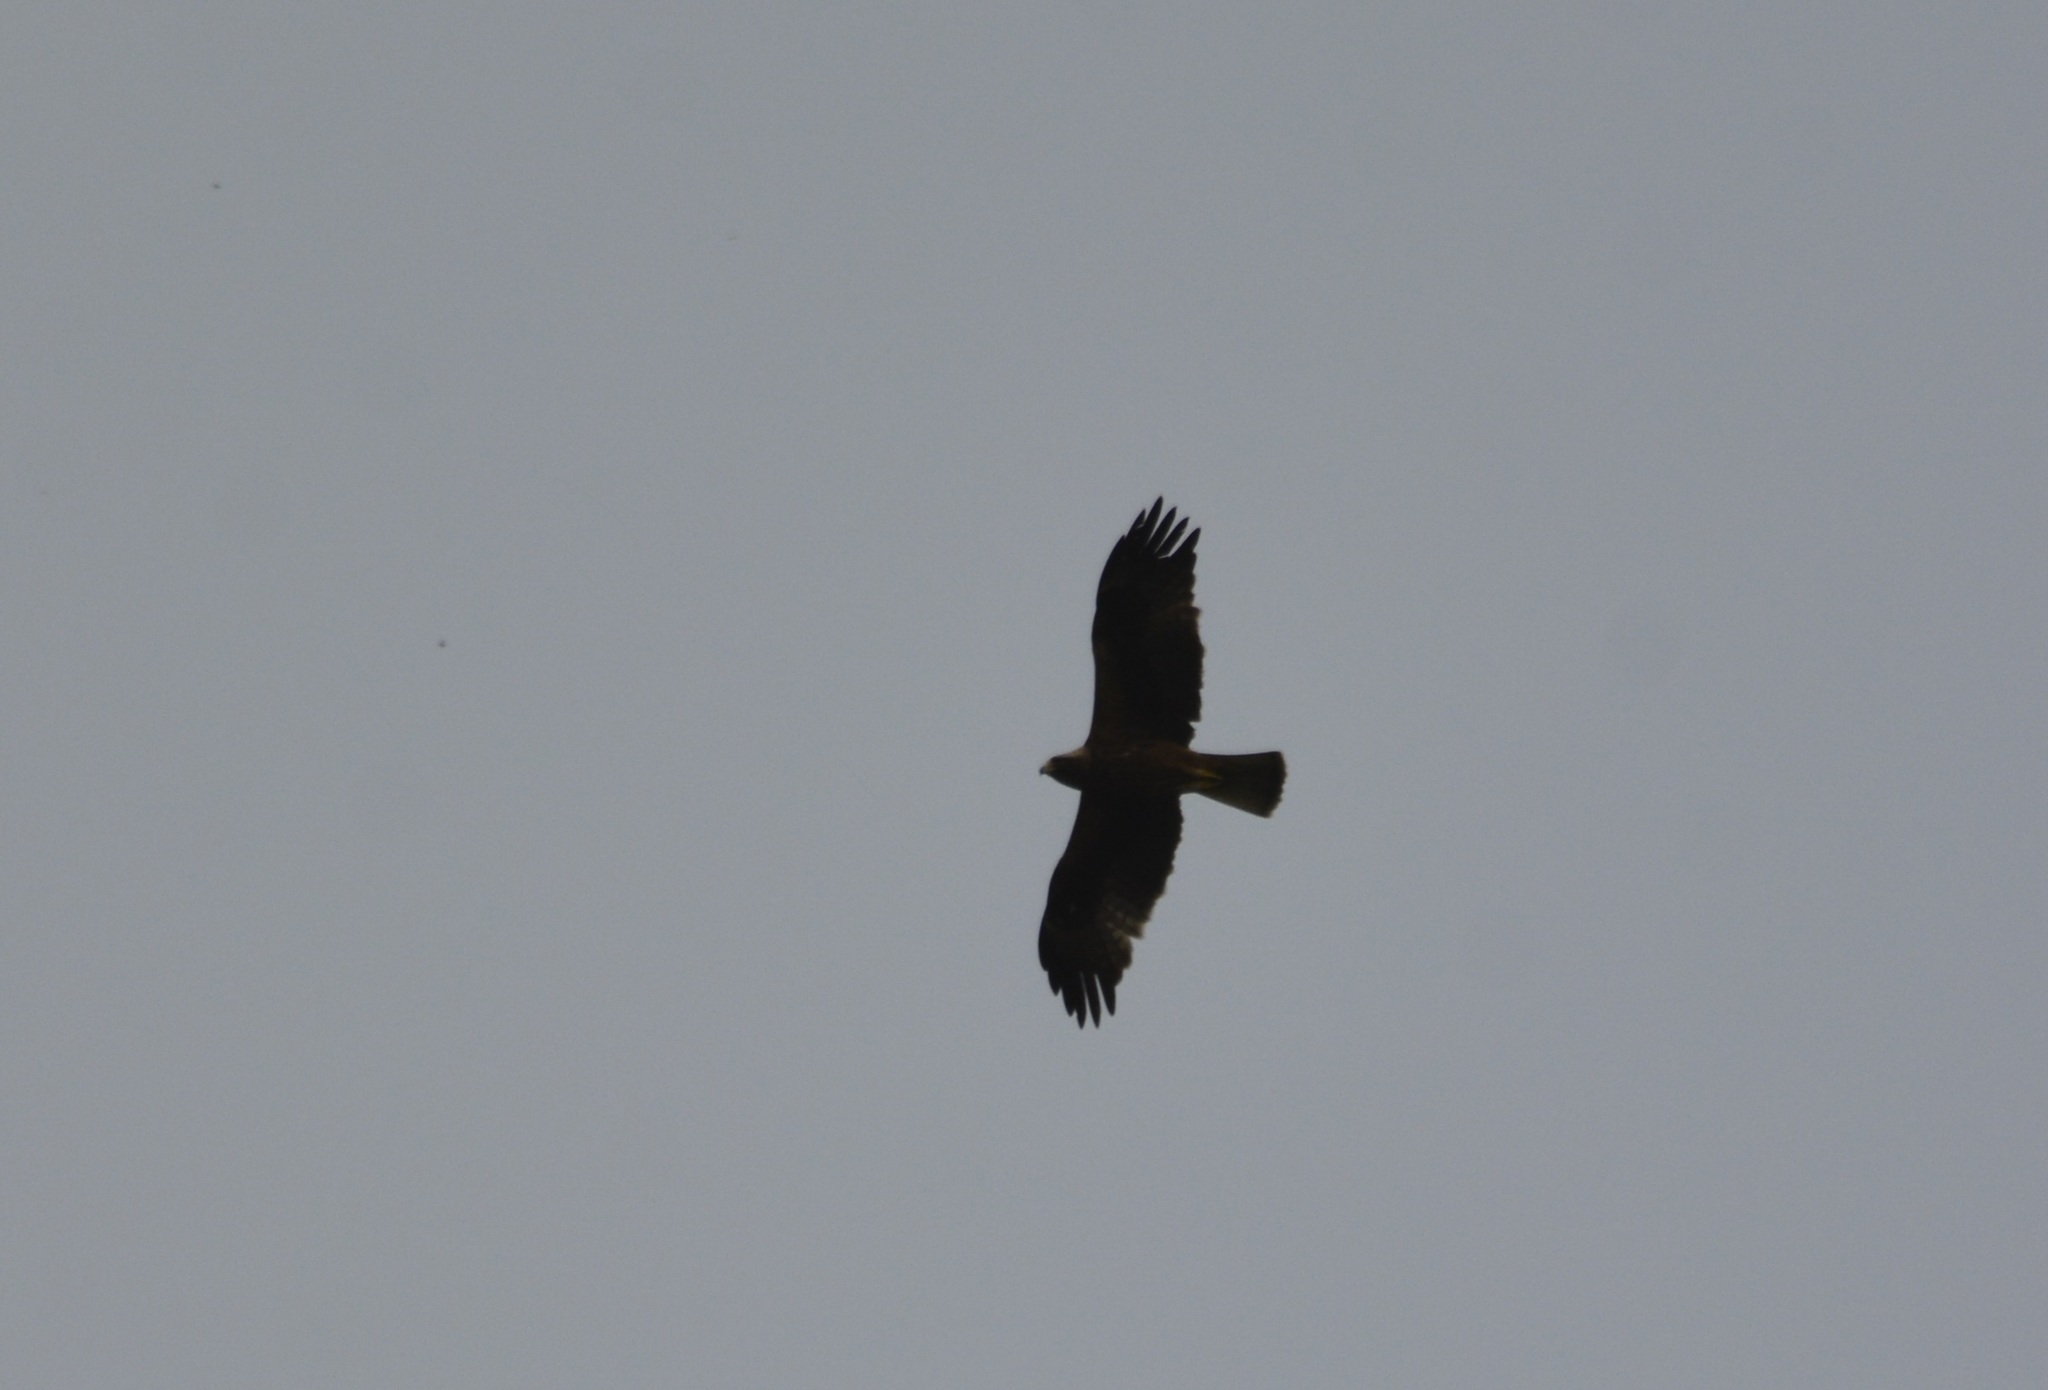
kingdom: Animalia
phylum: Chordata
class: Aves
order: Accipitriformes
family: Accipitridae
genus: Hieraaetus
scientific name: Hieraaetus pennatus
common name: Booted eagle
